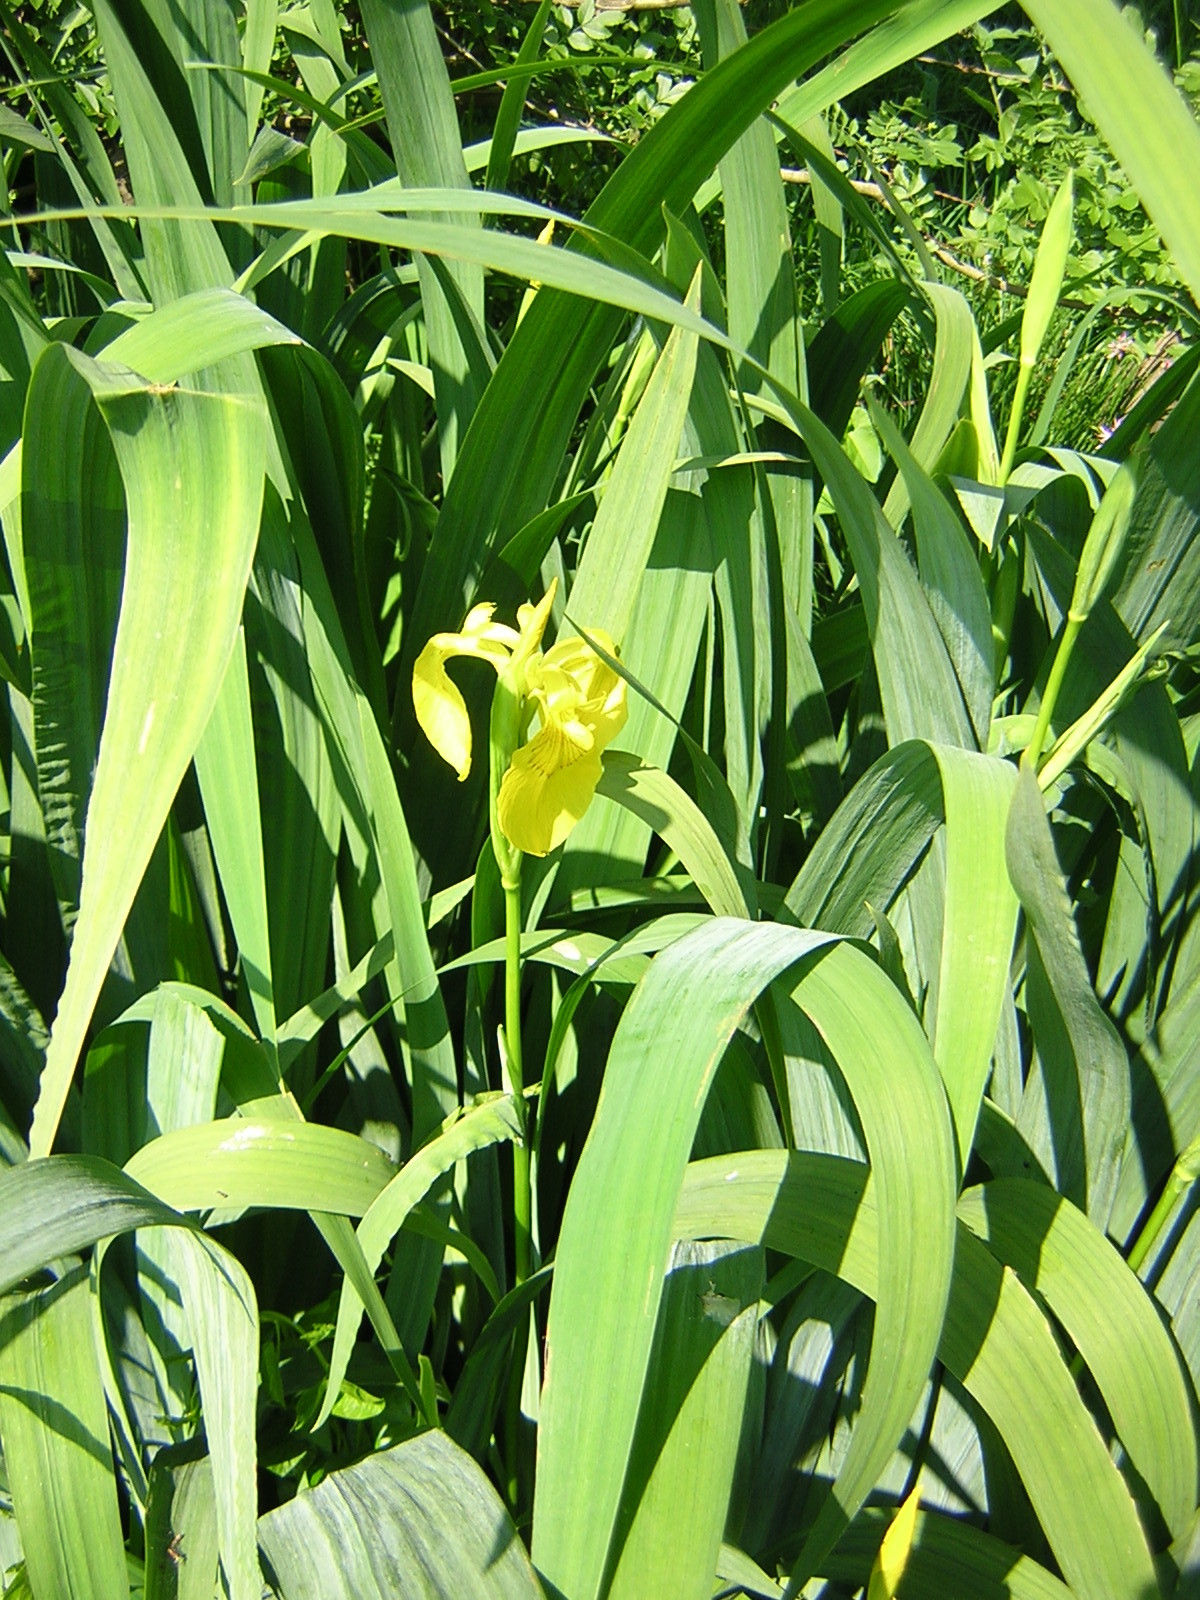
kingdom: Plantae
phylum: Tracheophyta
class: Liliopsida
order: Asparagales
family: Iridaceae
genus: Iris
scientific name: Iris pseudacorus
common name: Yellow flag
